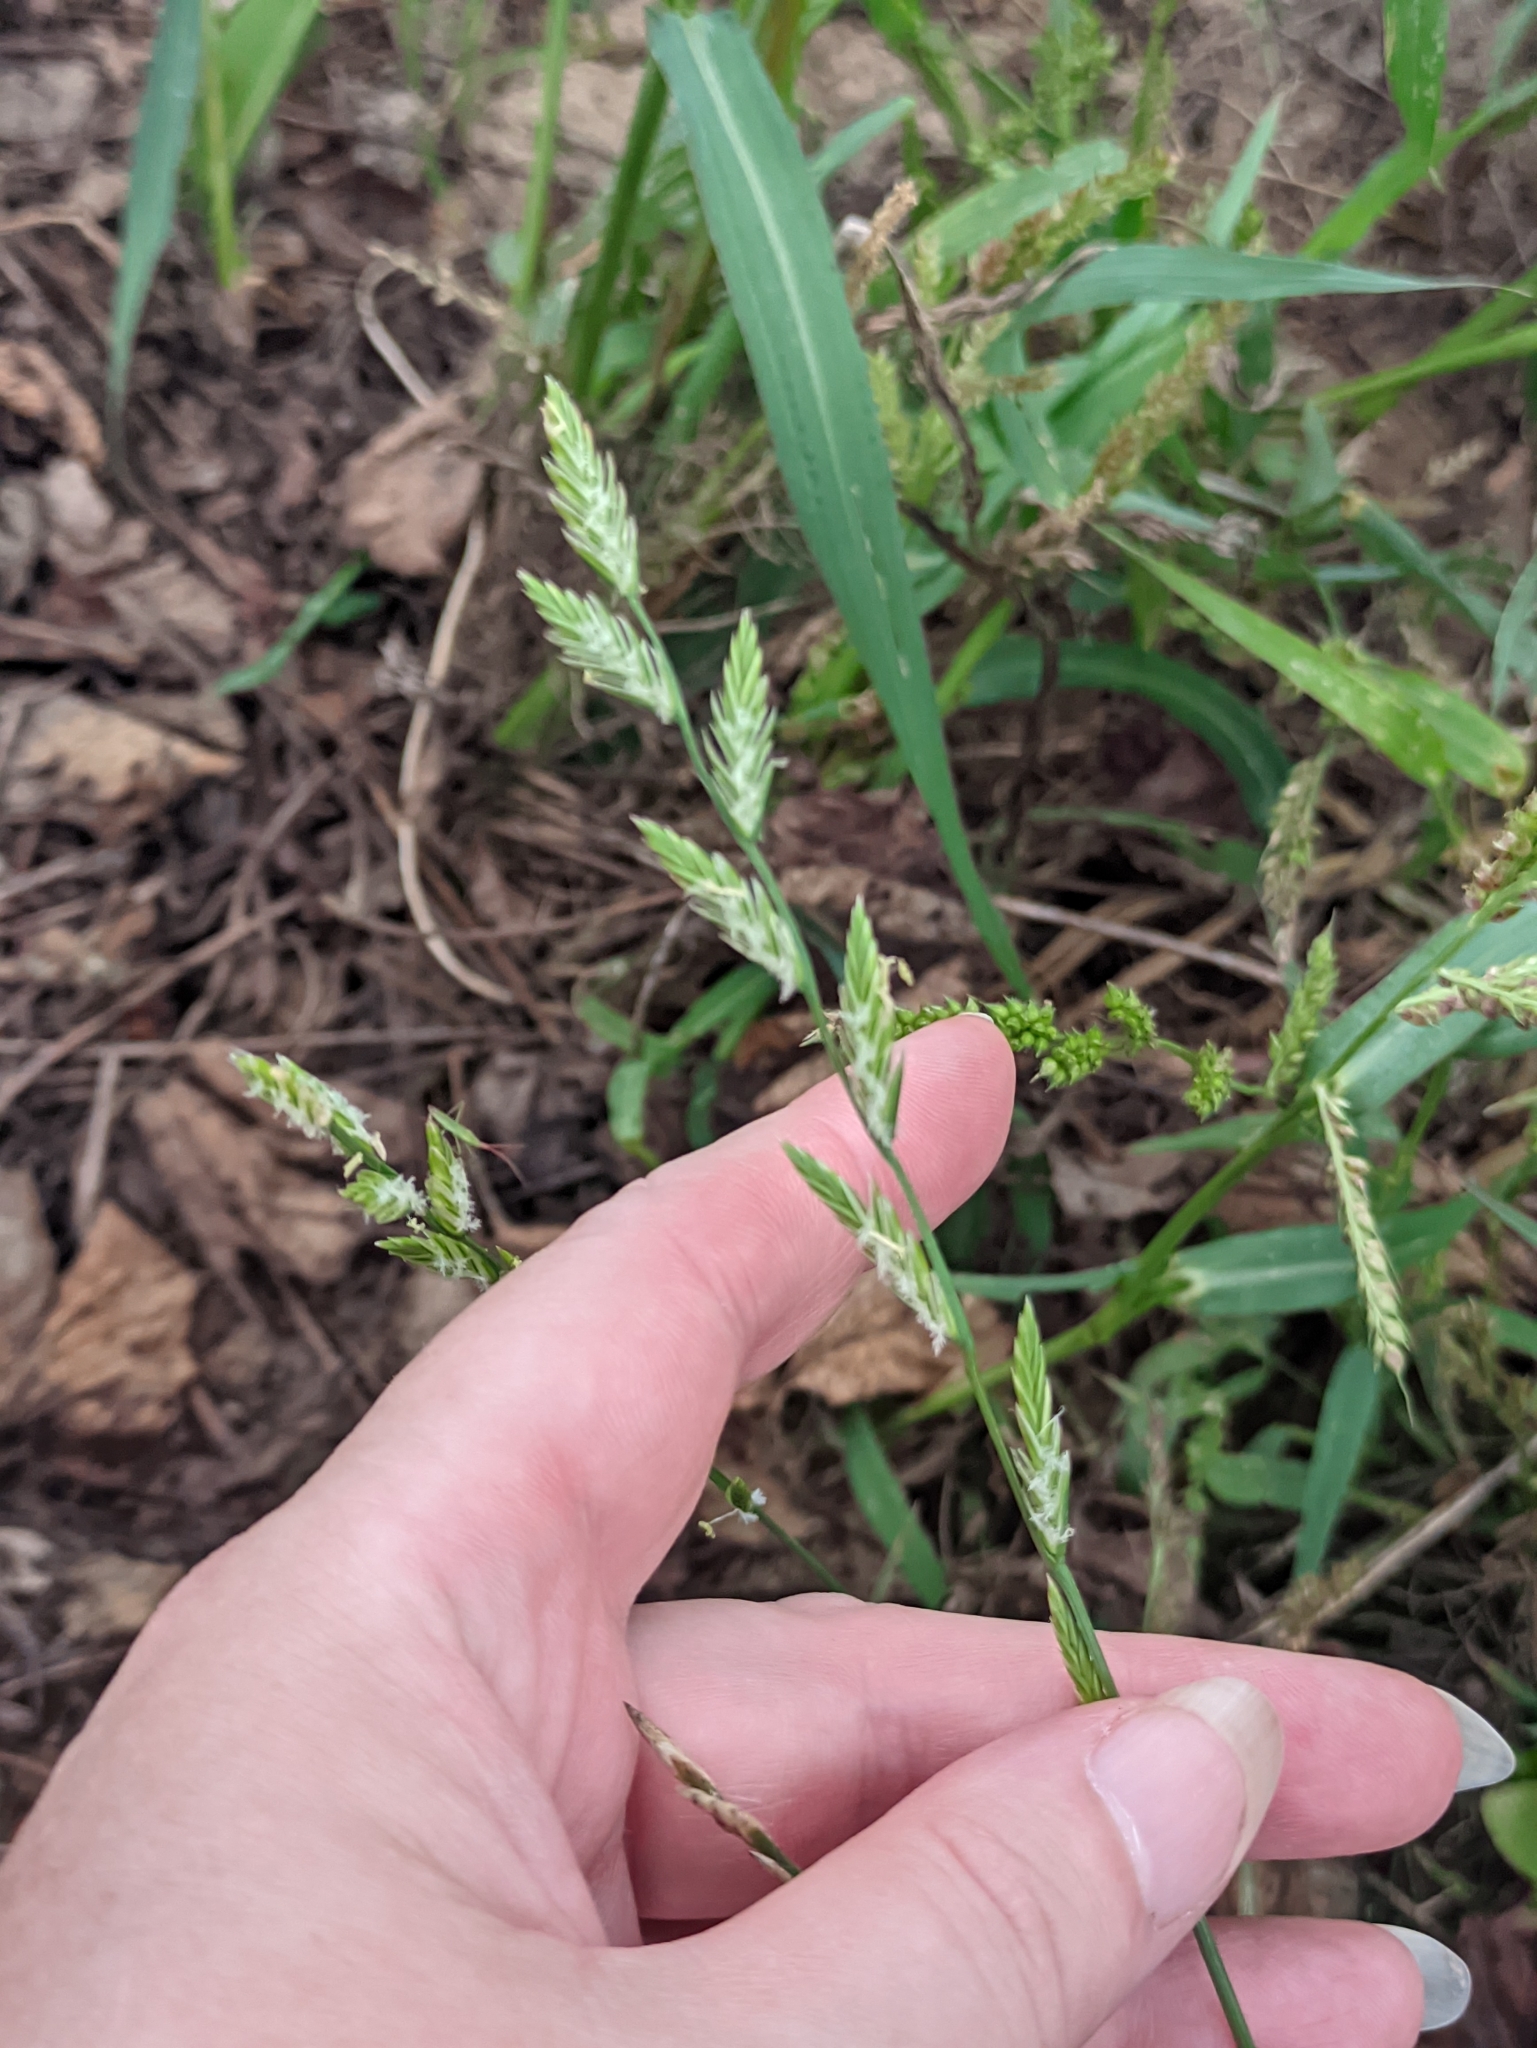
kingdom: Plantae
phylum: Tracheophyta
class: Liliopsida
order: Poales
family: Poaceae
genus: Lolium
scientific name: Lolium perenne
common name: Perennial ryegrass
